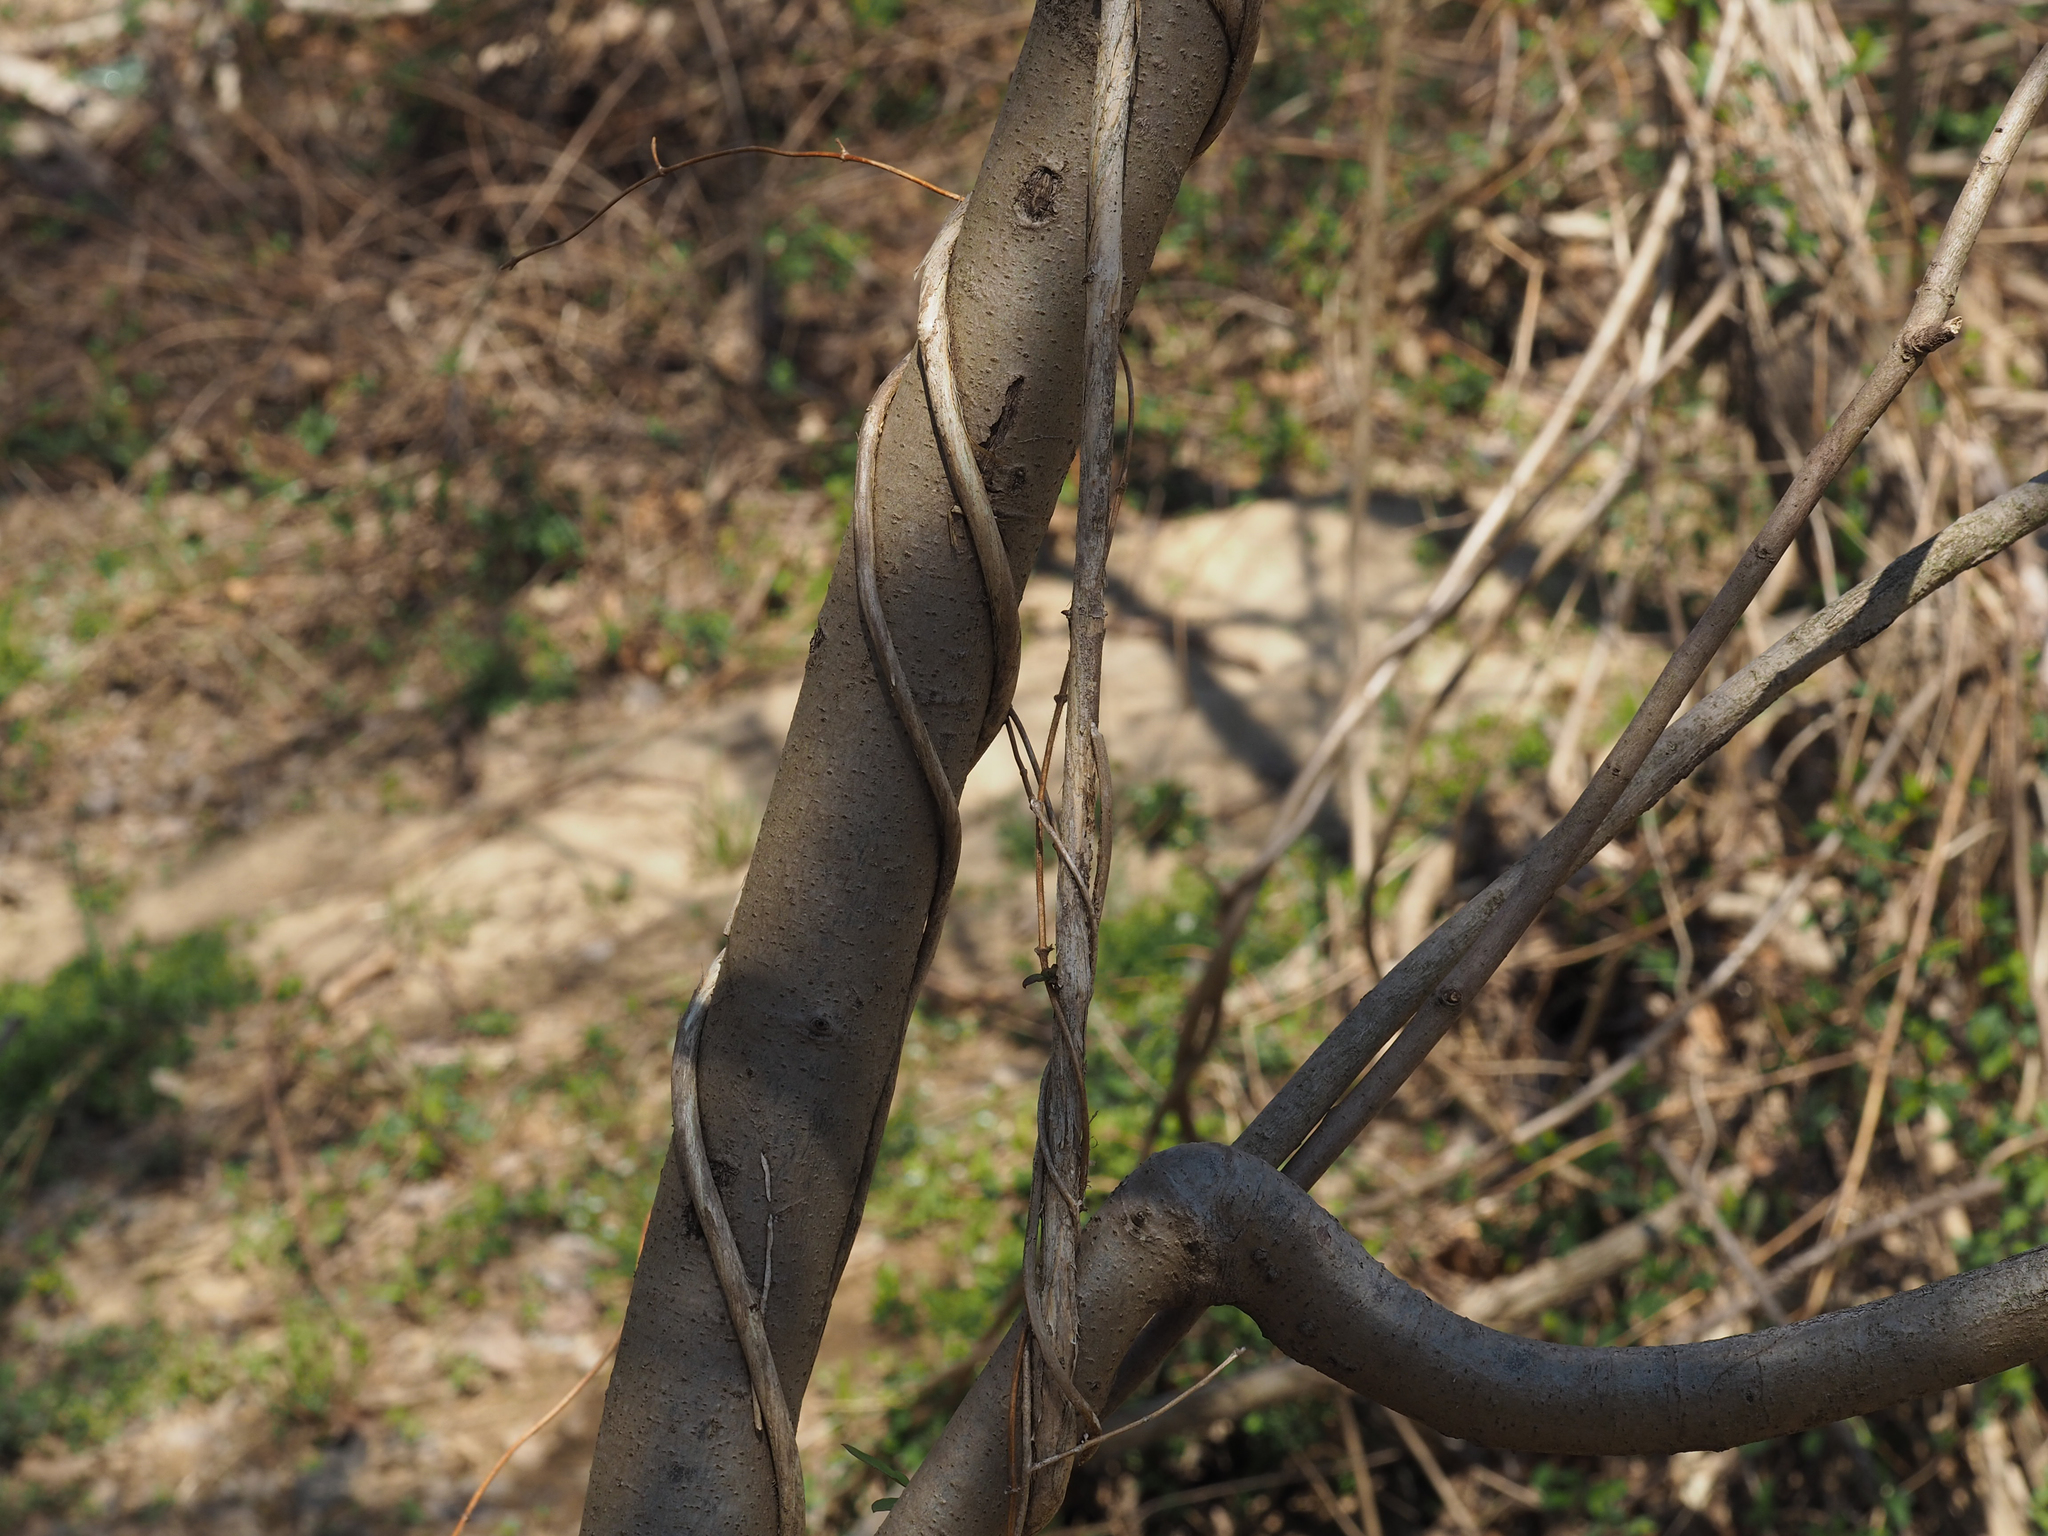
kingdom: Plantae
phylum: Tracheophyta
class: Magnoliopsida
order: Dipsacales
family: Caprifoliaceae
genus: Lonicera
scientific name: Lonicera japonica
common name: Japanese honeysuckle
